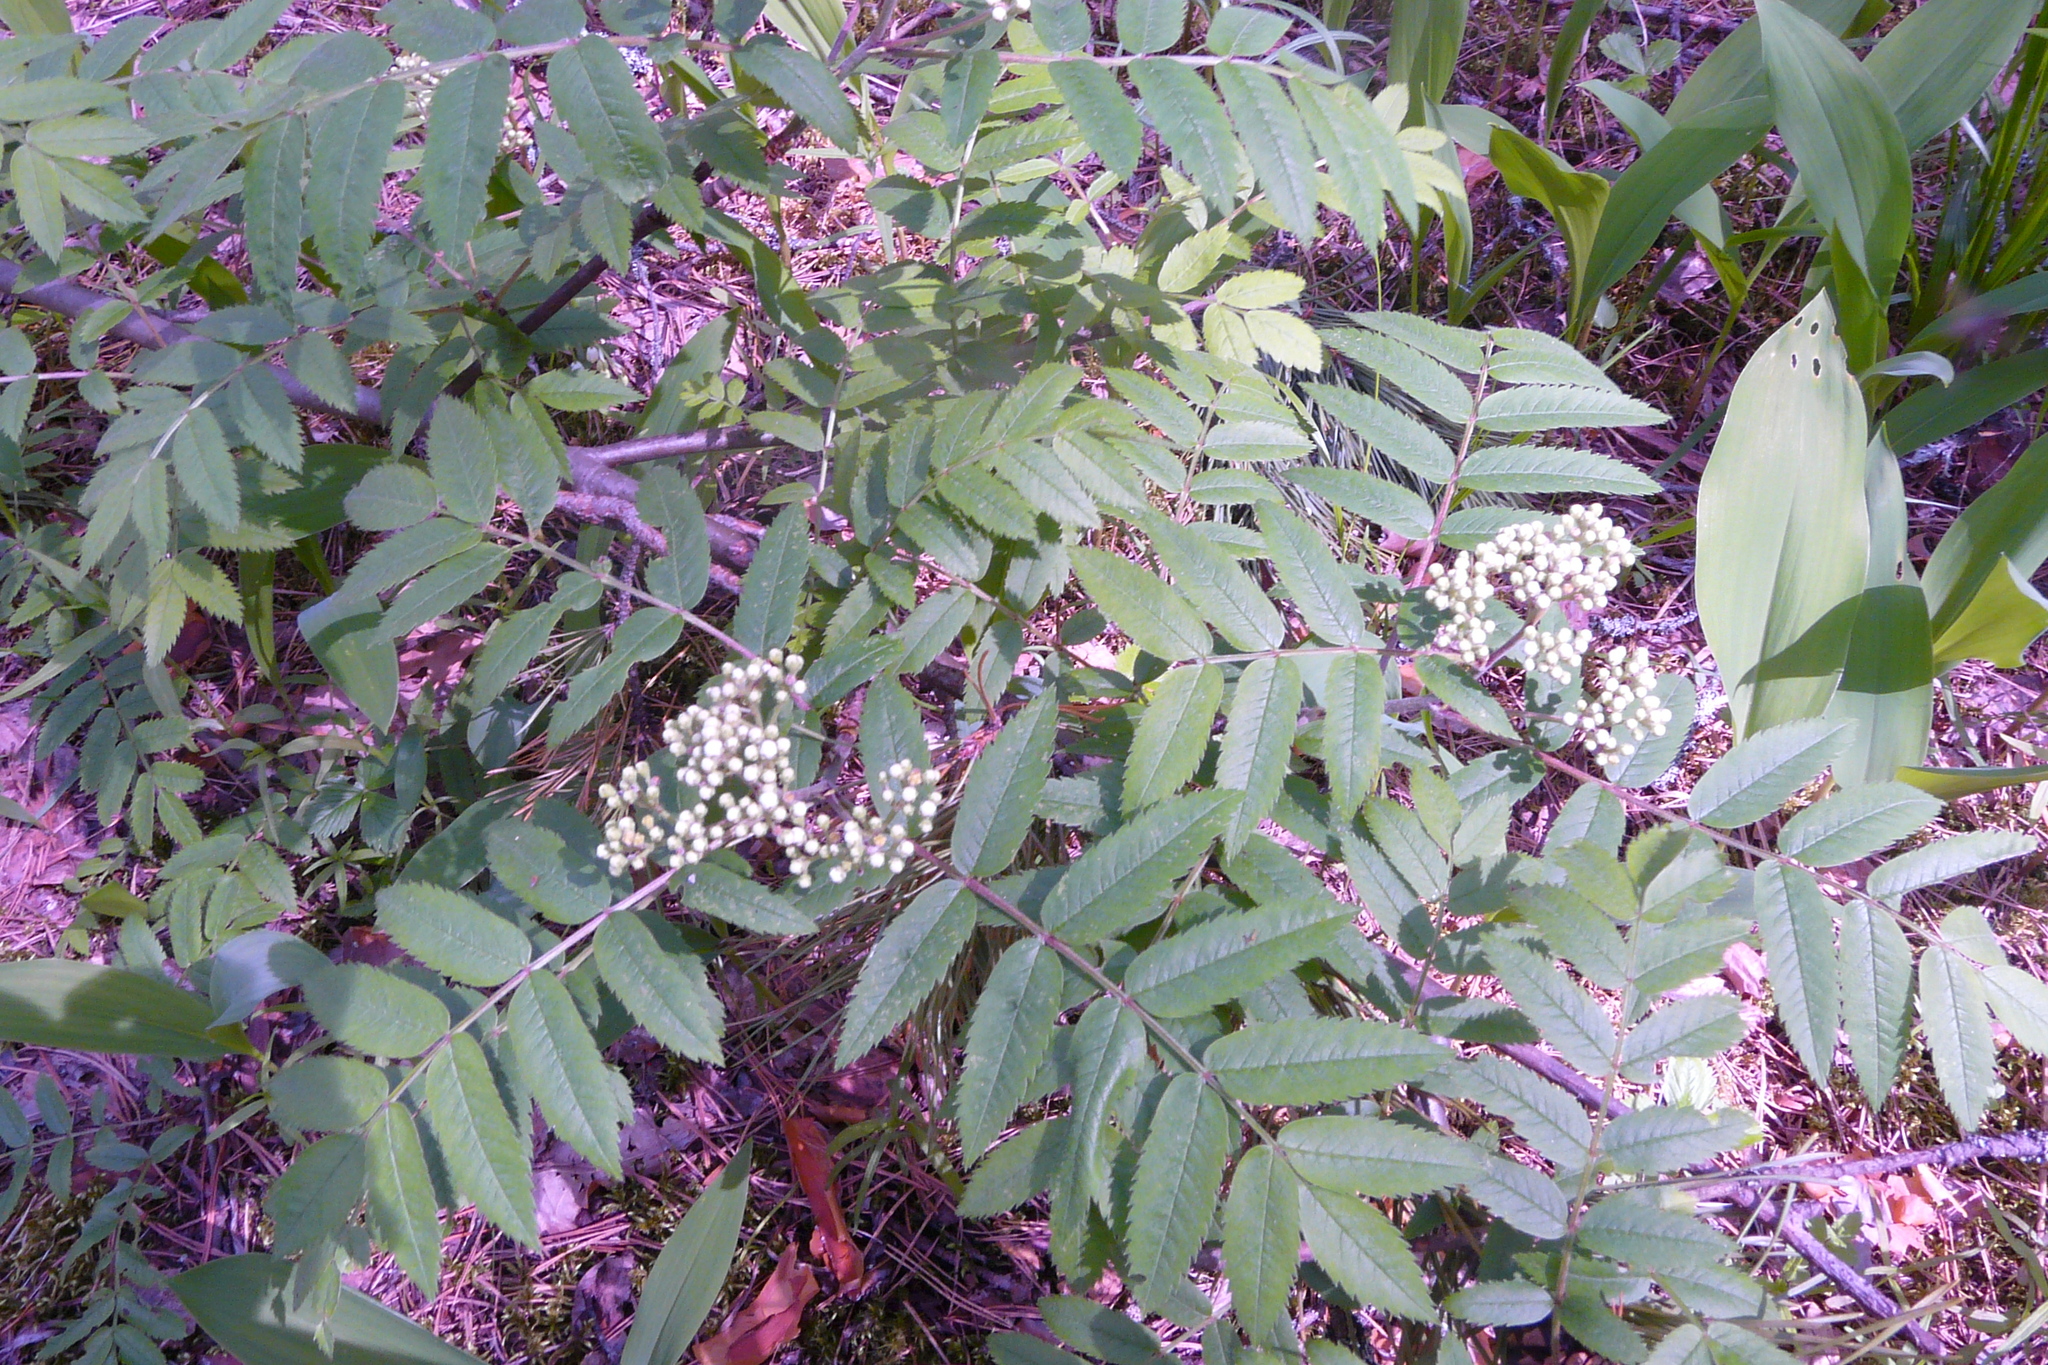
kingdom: Plantae
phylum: Tracheophyta
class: Magnoliopsida
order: Rosales
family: Rosaceae
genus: Sorbus
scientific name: Sorbus aucuparia
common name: Rowan
